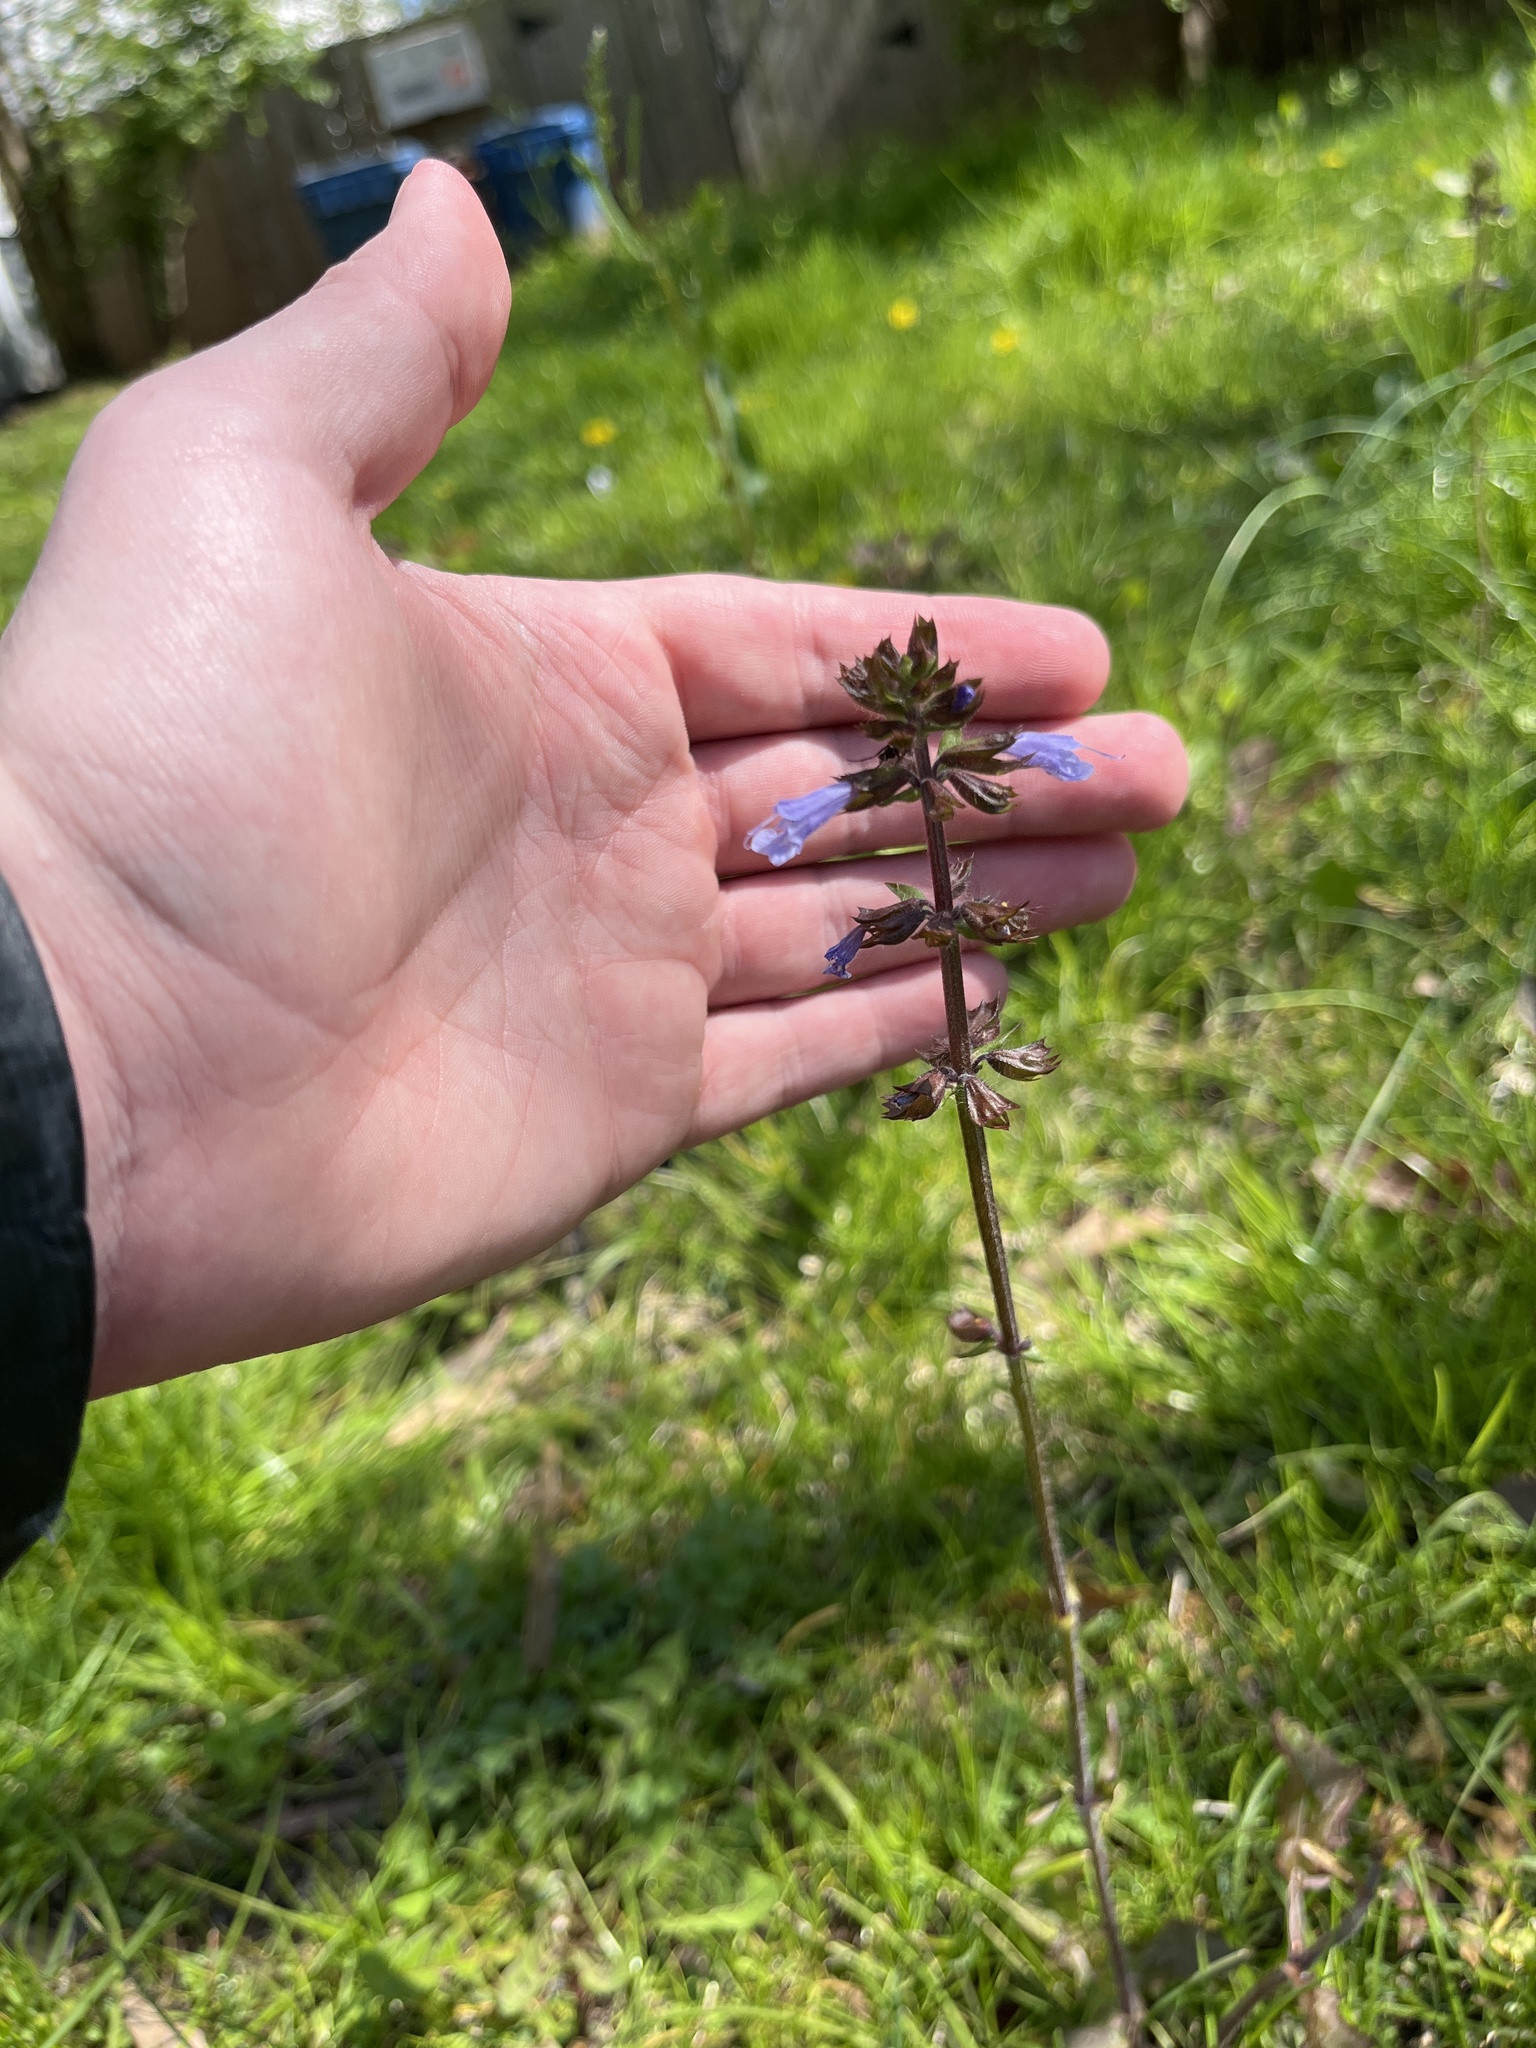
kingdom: Plantae
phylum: Tracheophyta
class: Magnoliopsida
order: Lamiales
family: Lamiaceae
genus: Salvia
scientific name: Salvia lyrata
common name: Cancerweed
